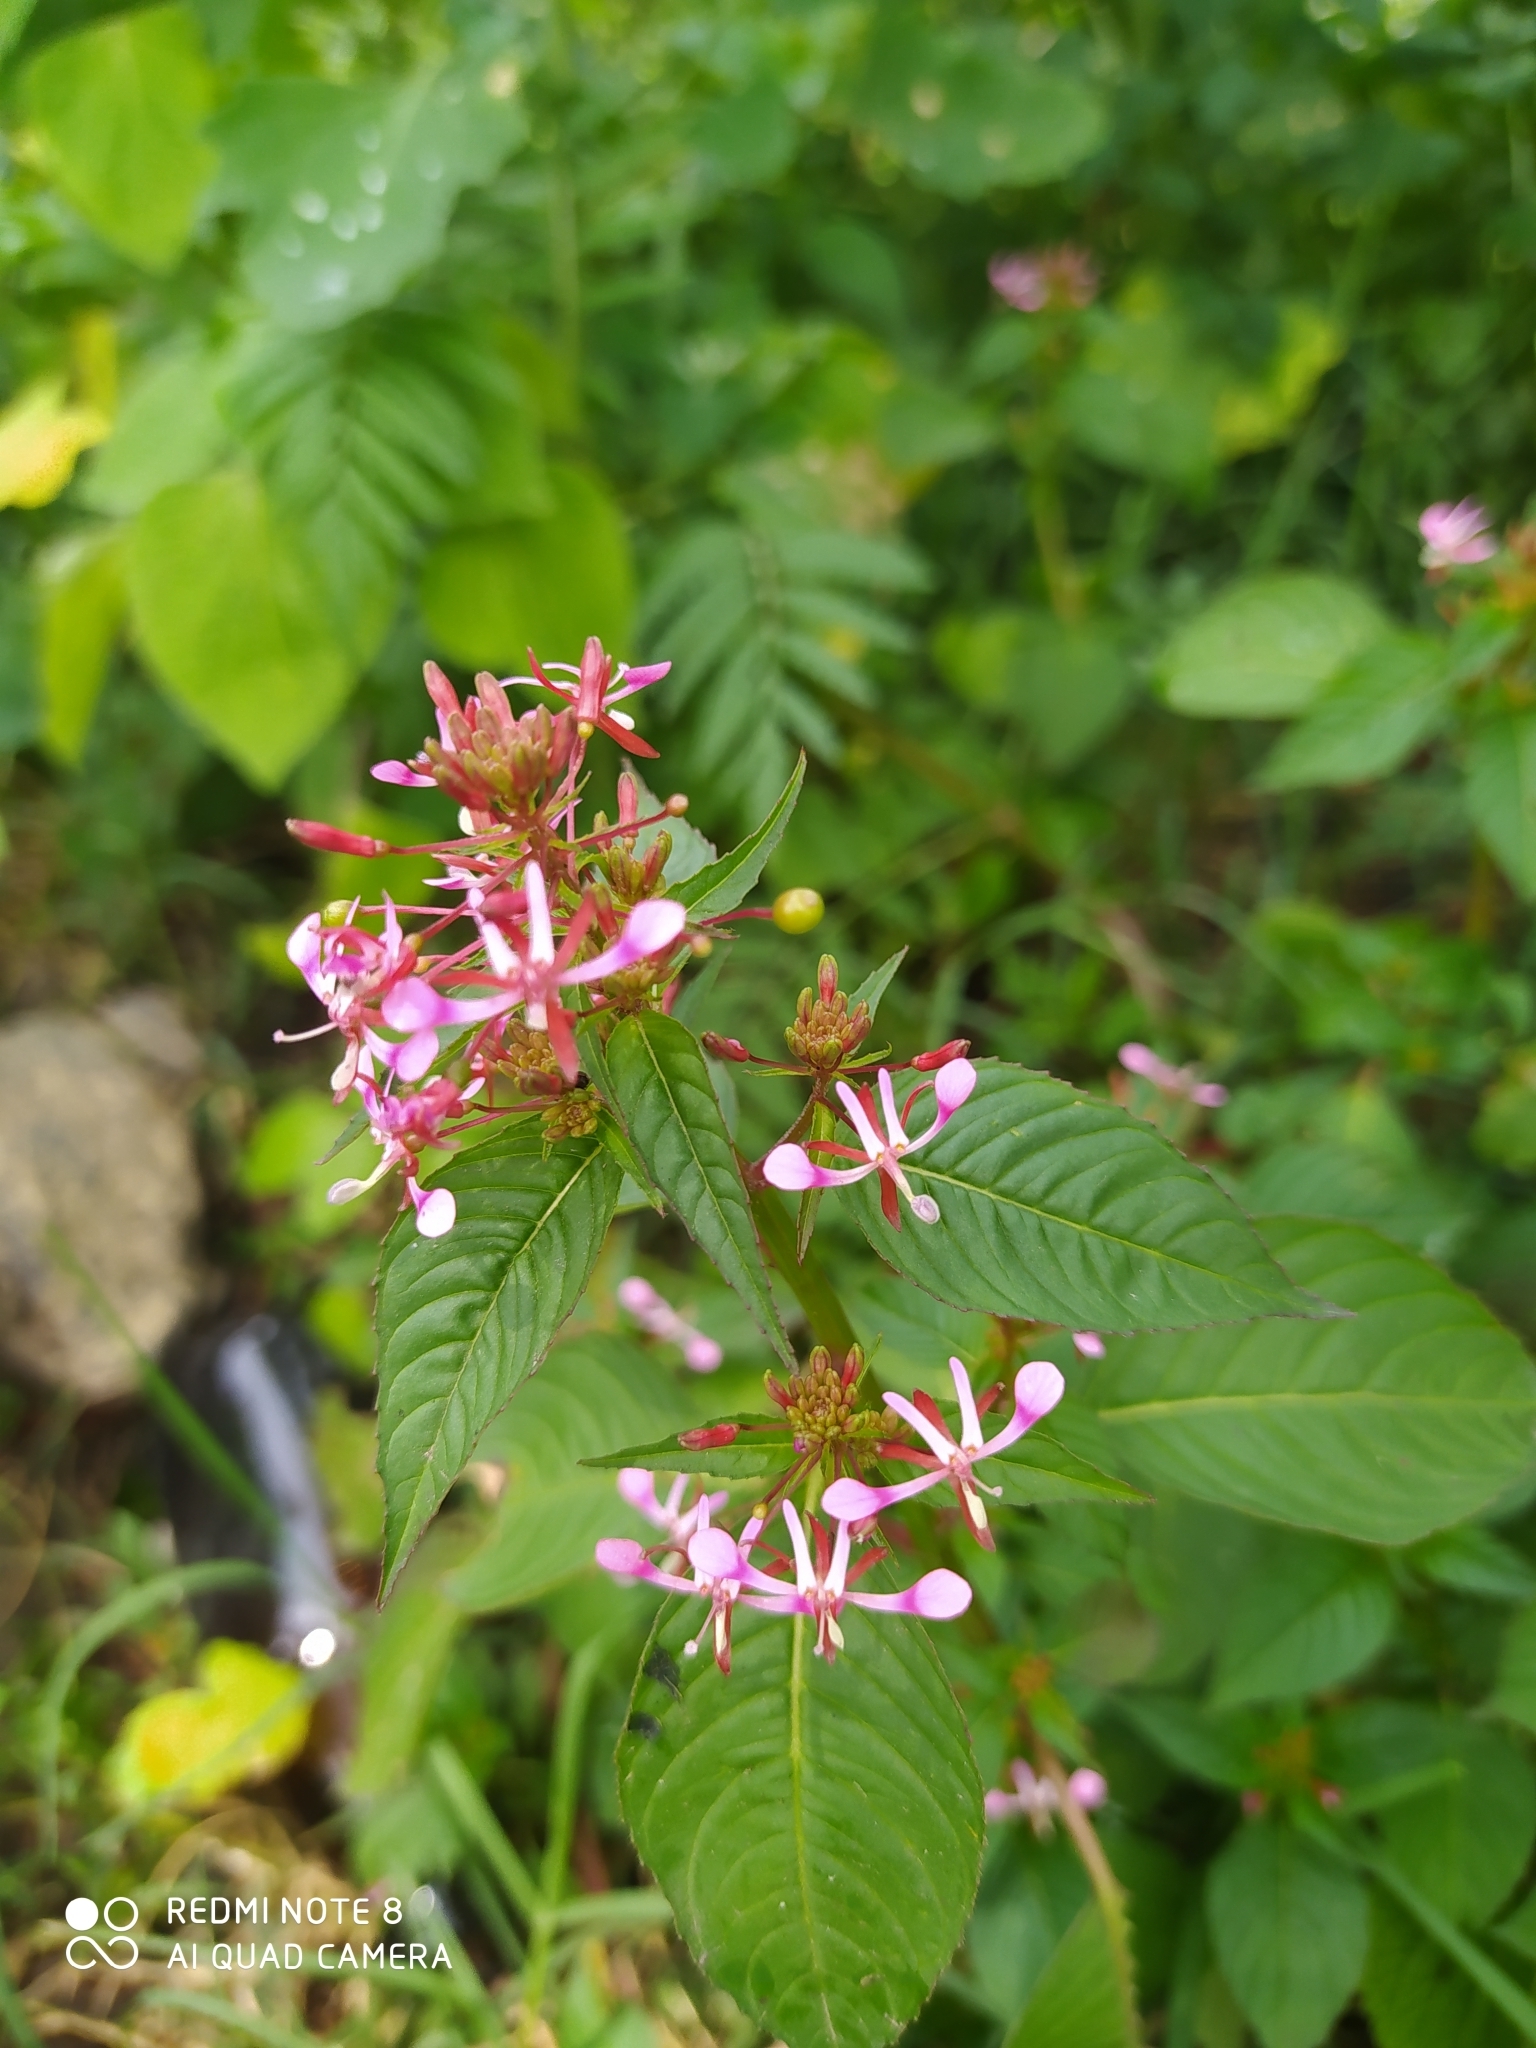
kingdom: Plantae
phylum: Tracheophyta
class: Magnoliopsida
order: Myrtales
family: Onagraceae
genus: Lopezia
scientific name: Lopezia racemosa
